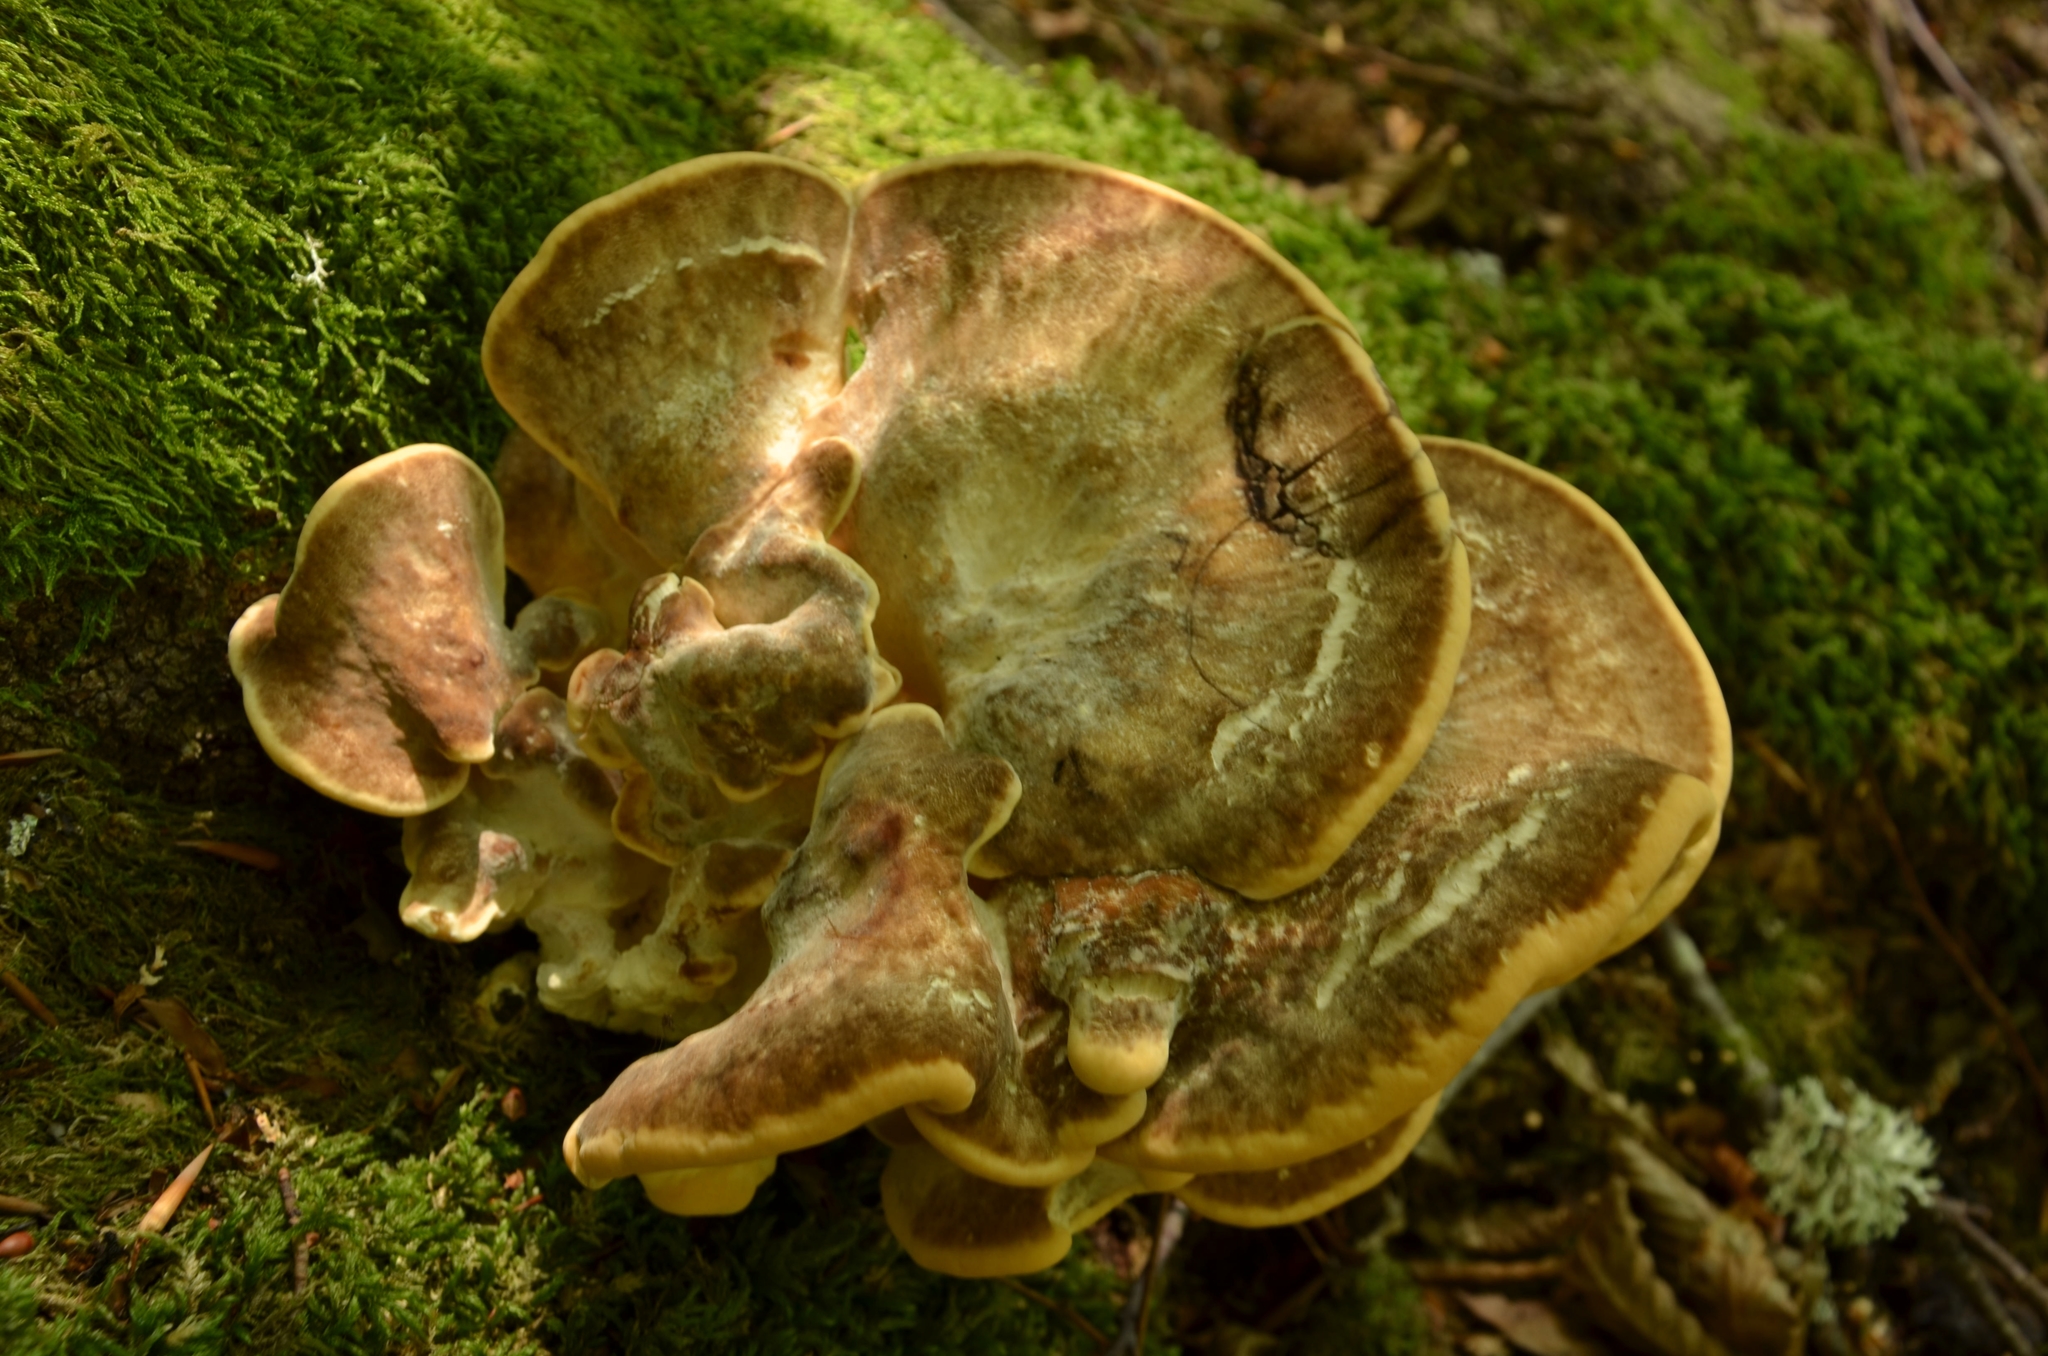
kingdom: Fungi
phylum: Basidiomycota
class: Agaricomycetes
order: Polyporales
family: Meripilaceae
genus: Meripilus
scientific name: Meripilus giganteus
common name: Giant polypore
